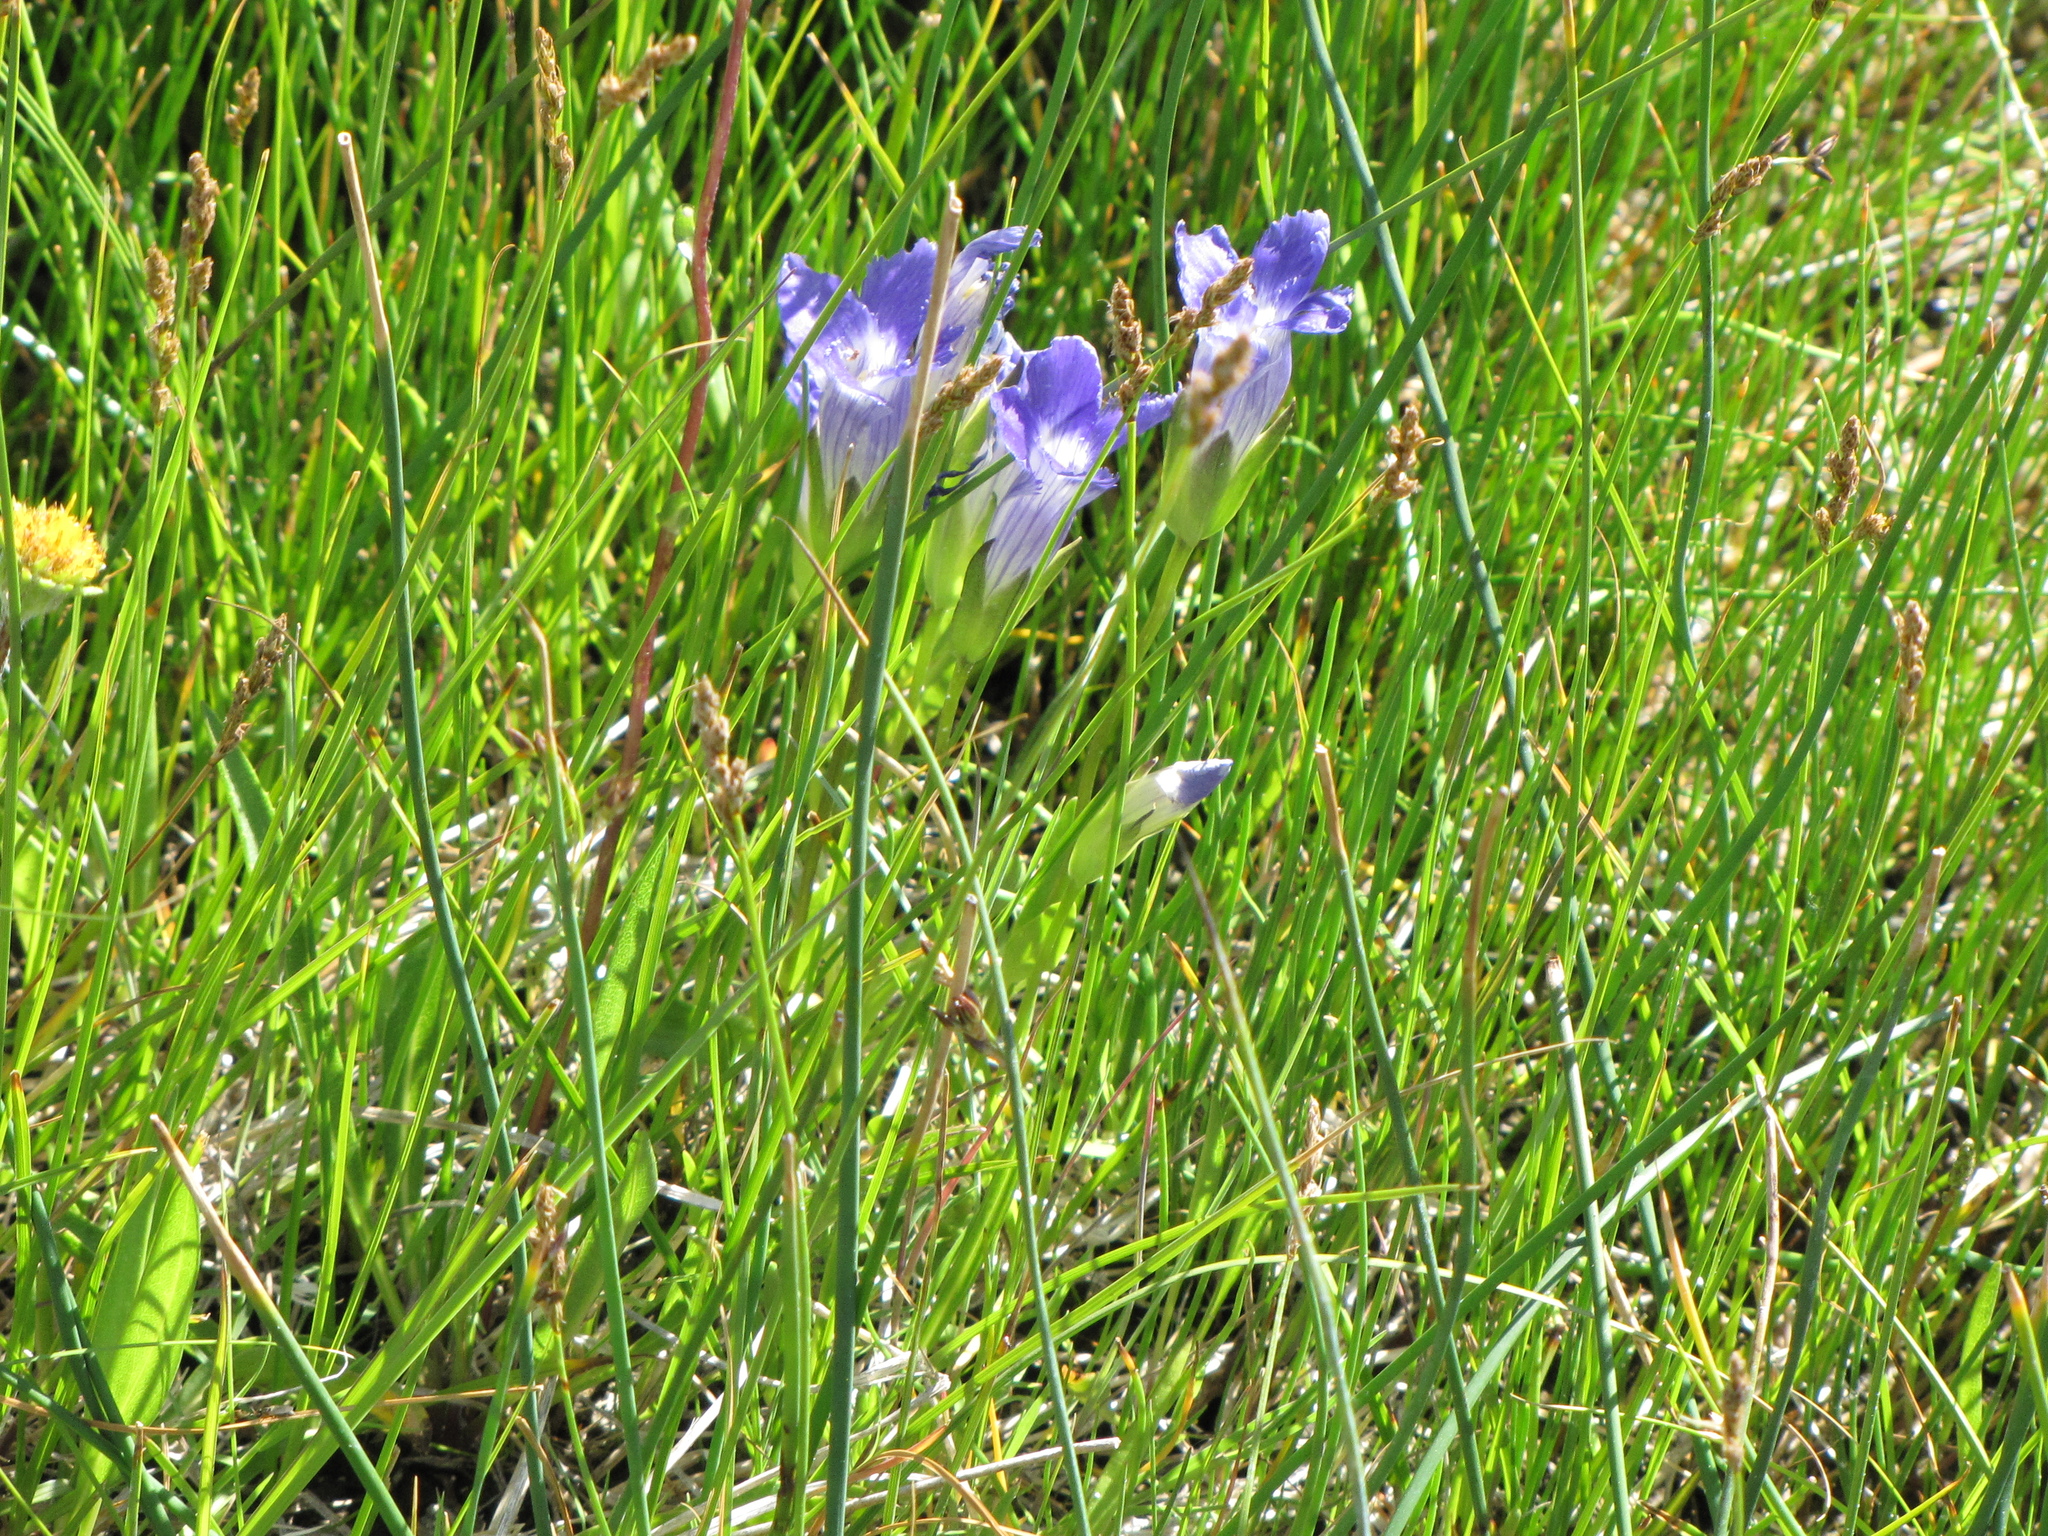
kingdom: Plantae
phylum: Tracheophyta
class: Magnoliopsida
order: Gentianales
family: Gentianaceae
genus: Gentianopsis
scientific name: Gentianopsis thermalis
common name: Rocky mountain fringed-gentian
